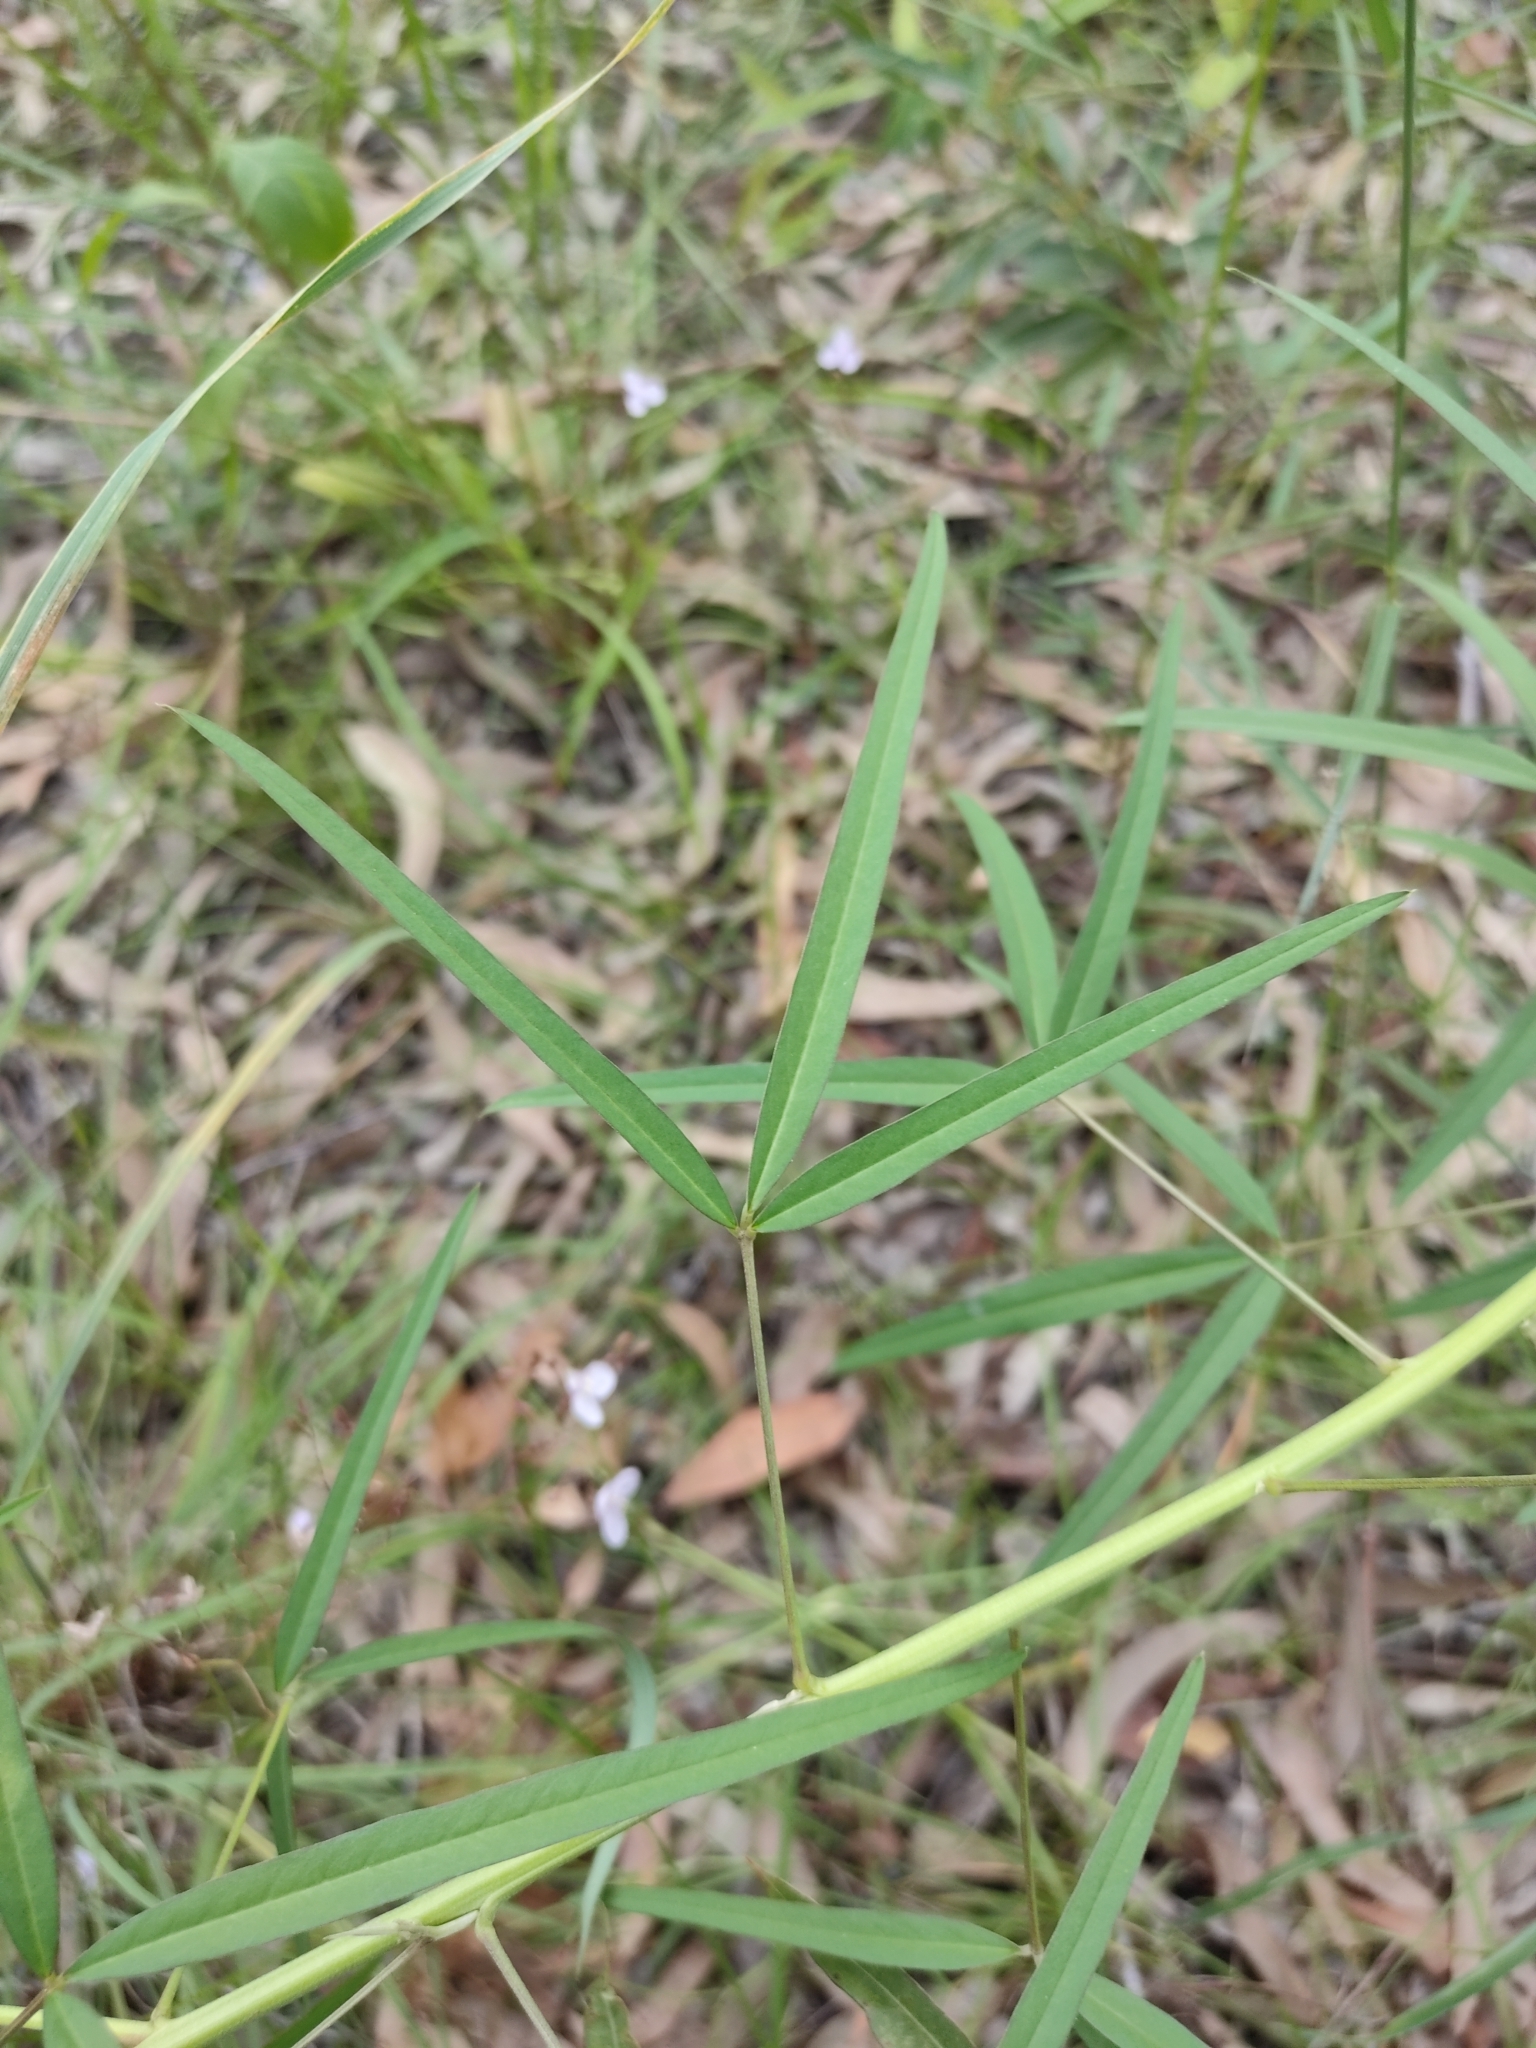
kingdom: Plantae
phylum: Tracheophyta
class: Magnoliopsida
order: Fabales
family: Fabaceae
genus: Crotalaria
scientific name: Crotalaria lanceolata
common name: Lanceleaf rattlebox
